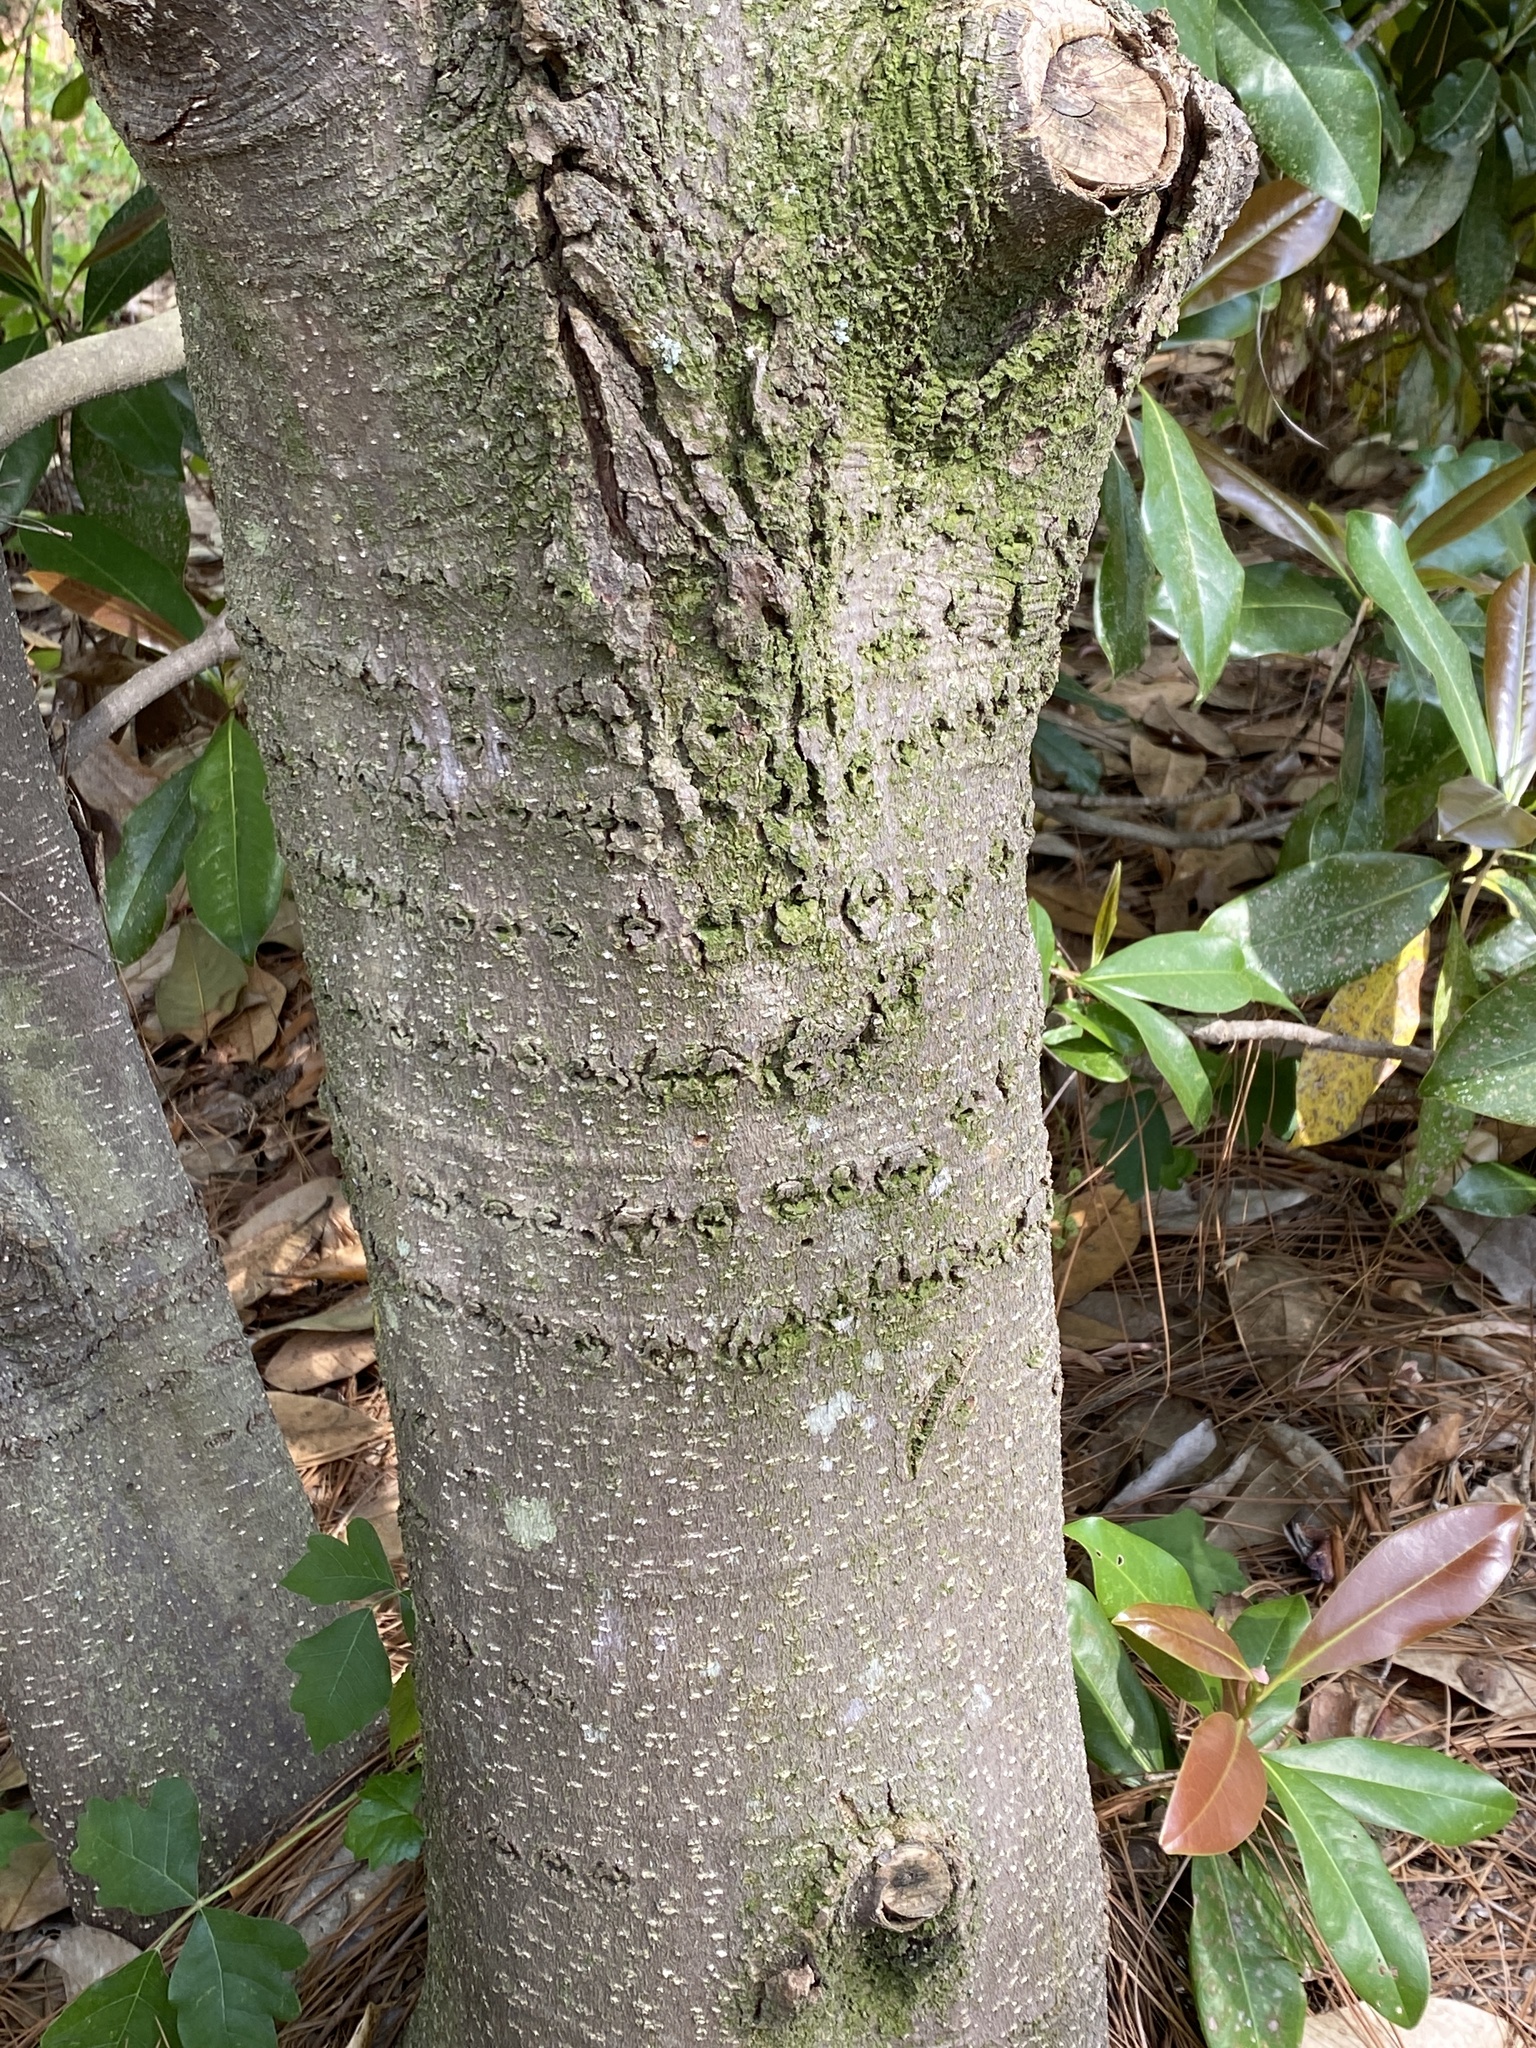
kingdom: Animalia
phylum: Chordata
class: Aves
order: Piciformes
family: Picidae
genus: Sphyrapicus
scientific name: Sphyrapicus varius
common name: Yellow-bellied sapsucker
